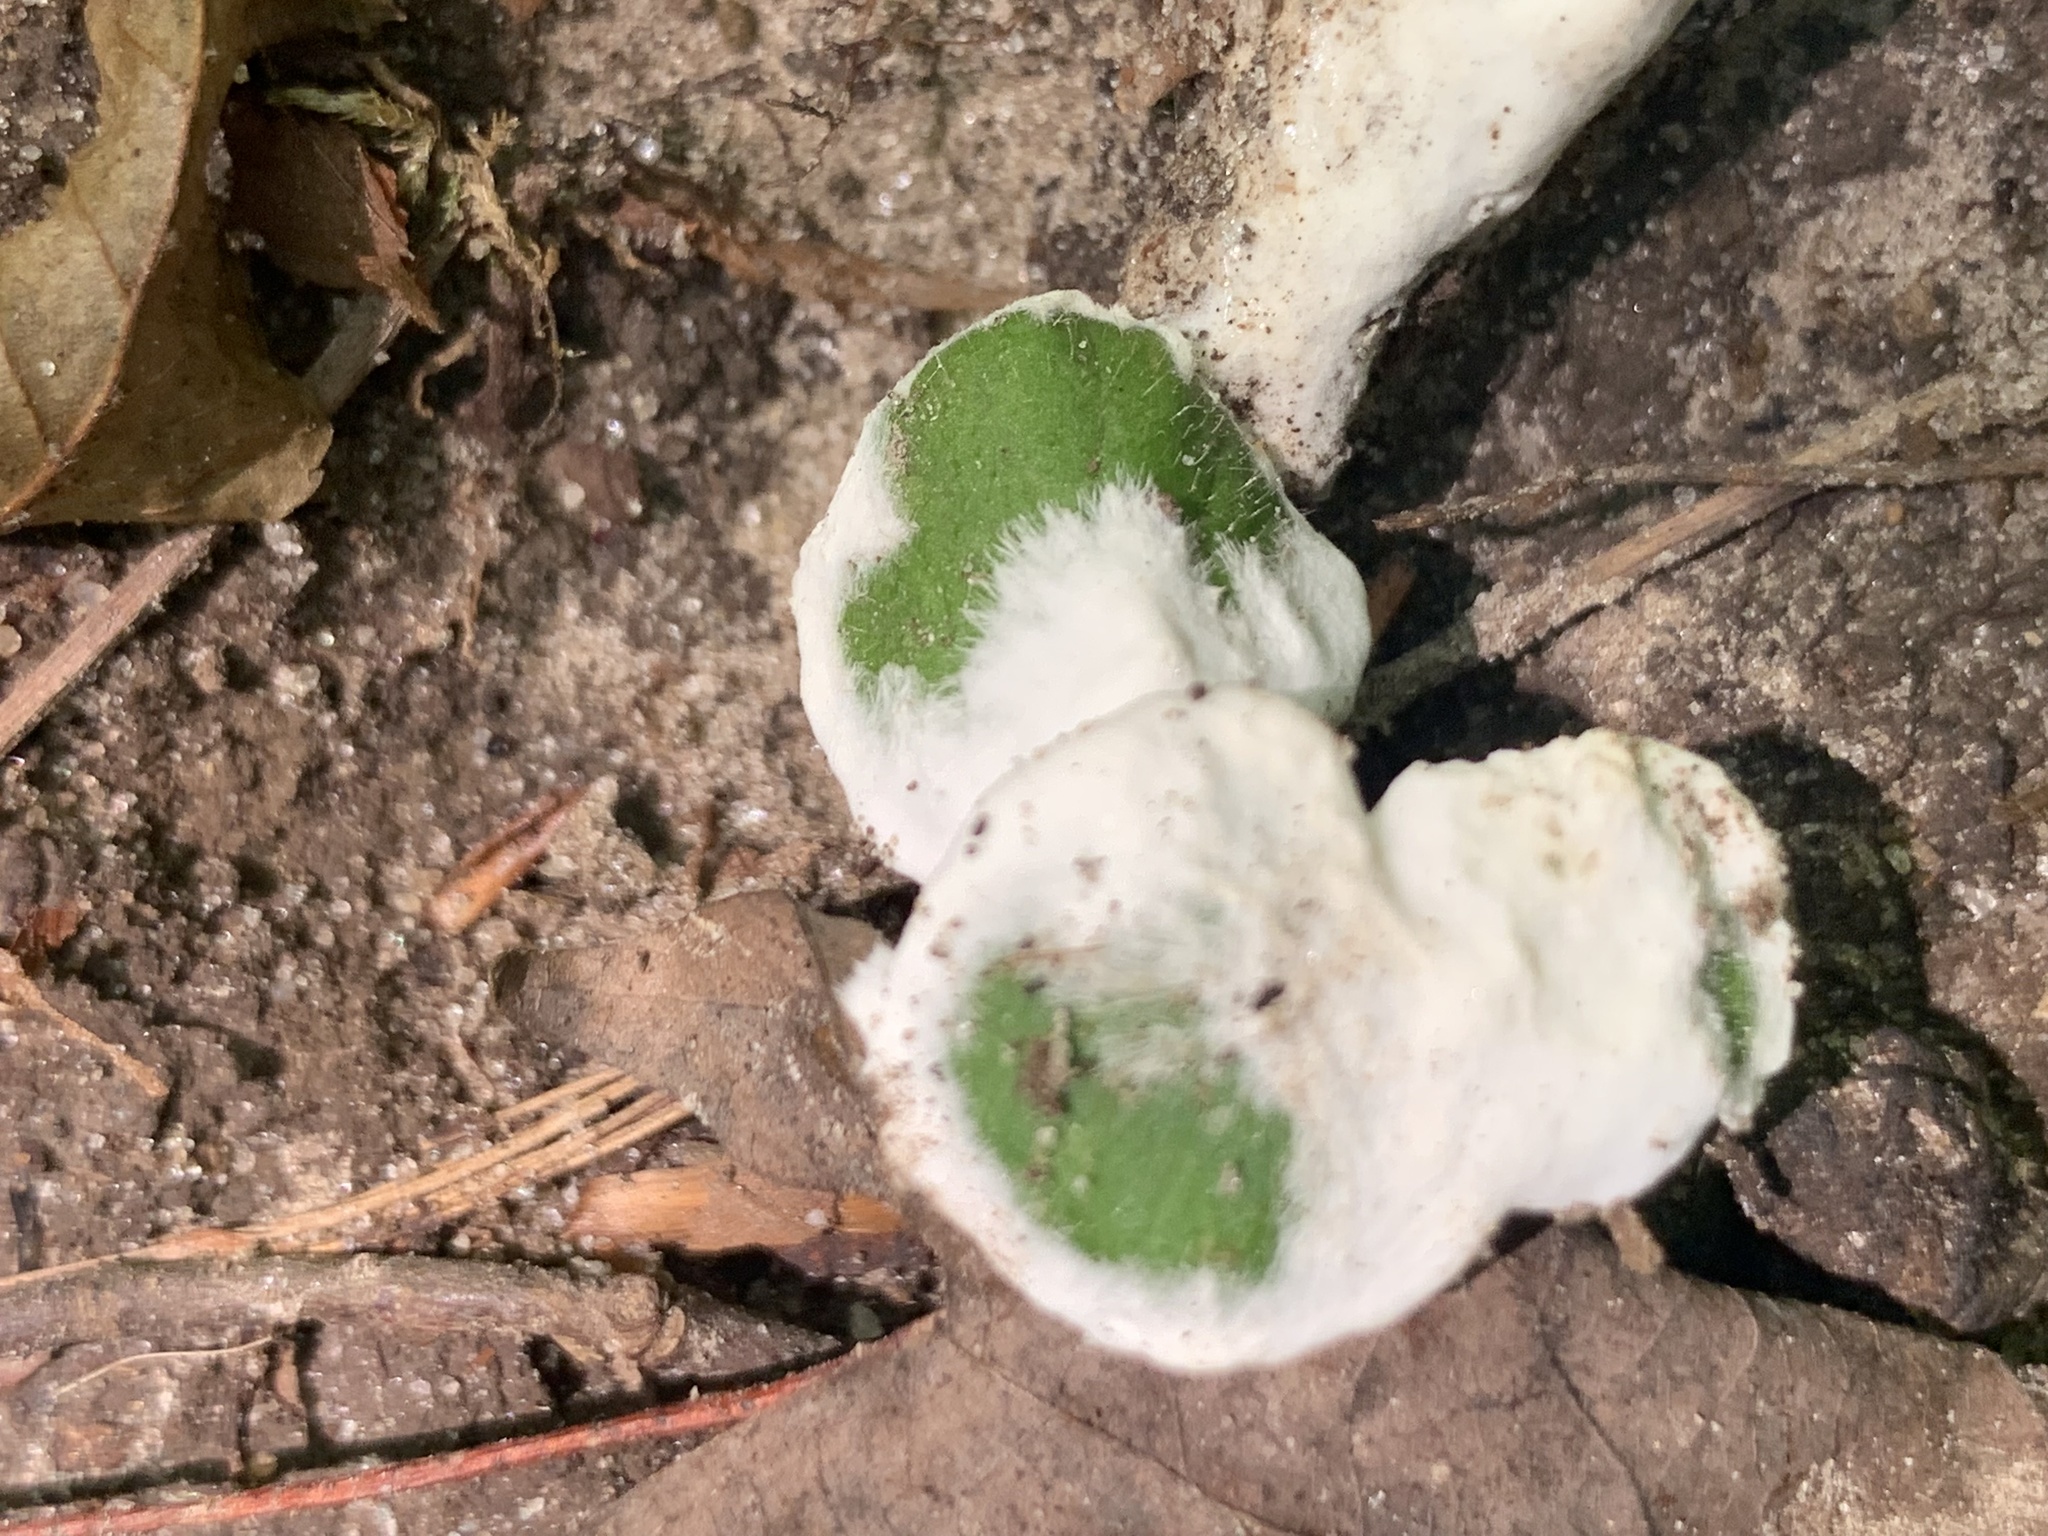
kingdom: Fungi
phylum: Basidiomycota
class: Agaricomycetes
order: Sebacinales
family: Sebacinaceae
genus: Sebacina
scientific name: Sebacina incrustans
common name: Enveloping crust
